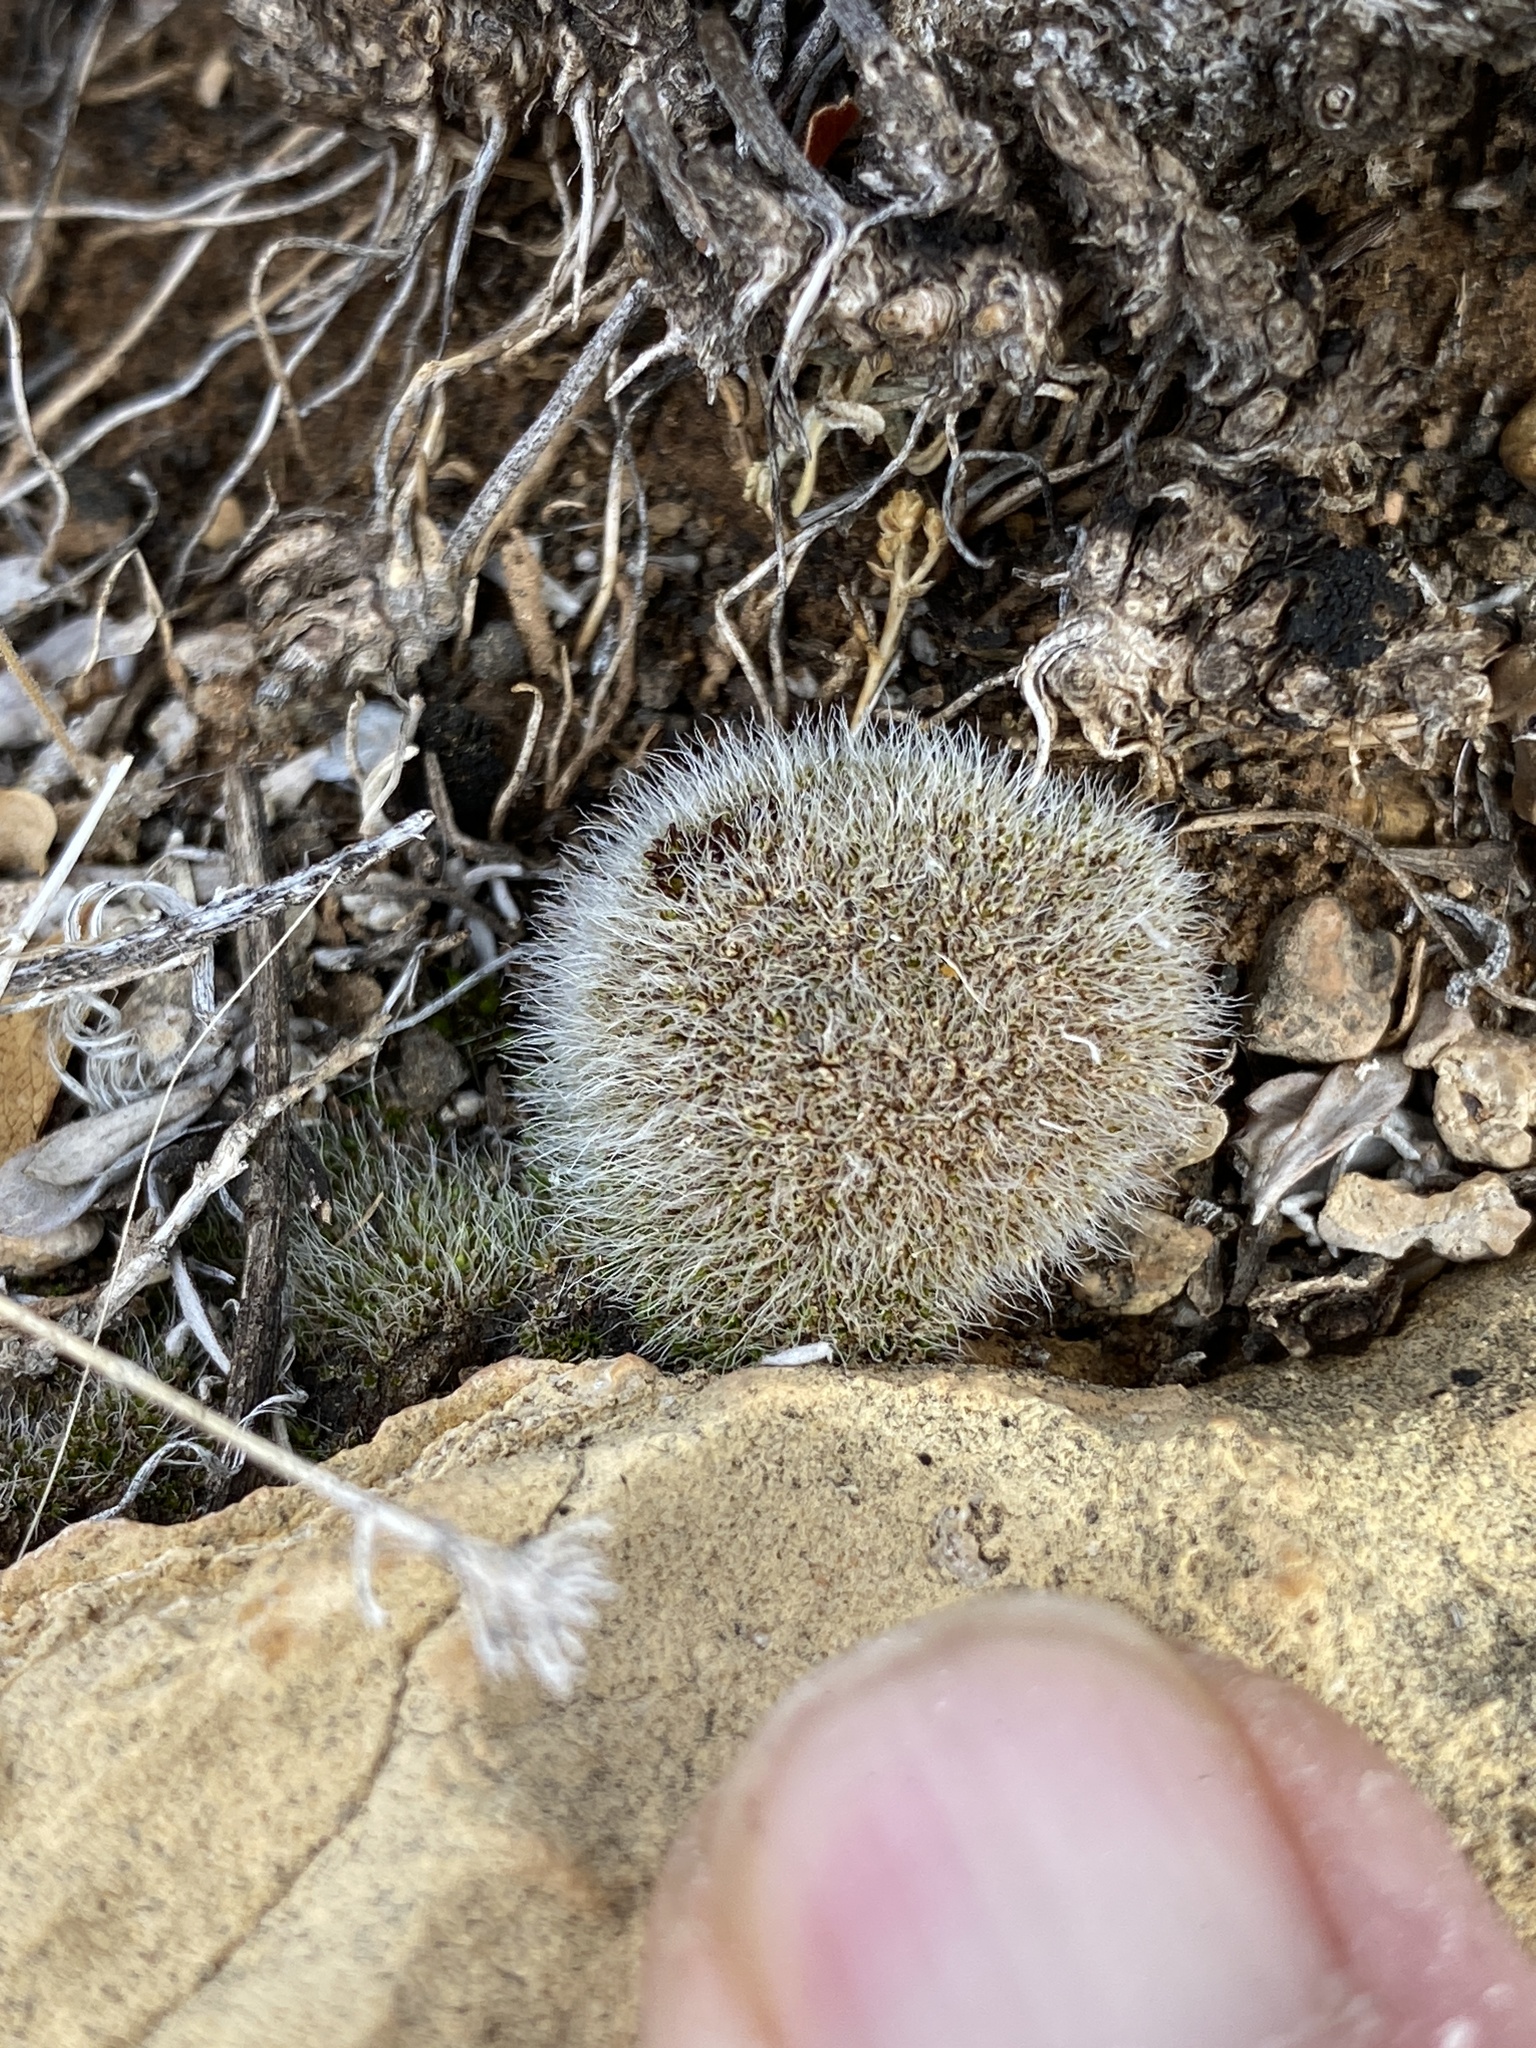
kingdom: Plantae
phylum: Bryophyta
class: Bryopsida
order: Grimmiales
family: Grimmiaceae
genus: Grimmia
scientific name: Grimmia pulvinata
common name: Grey-cushioned grimmia
